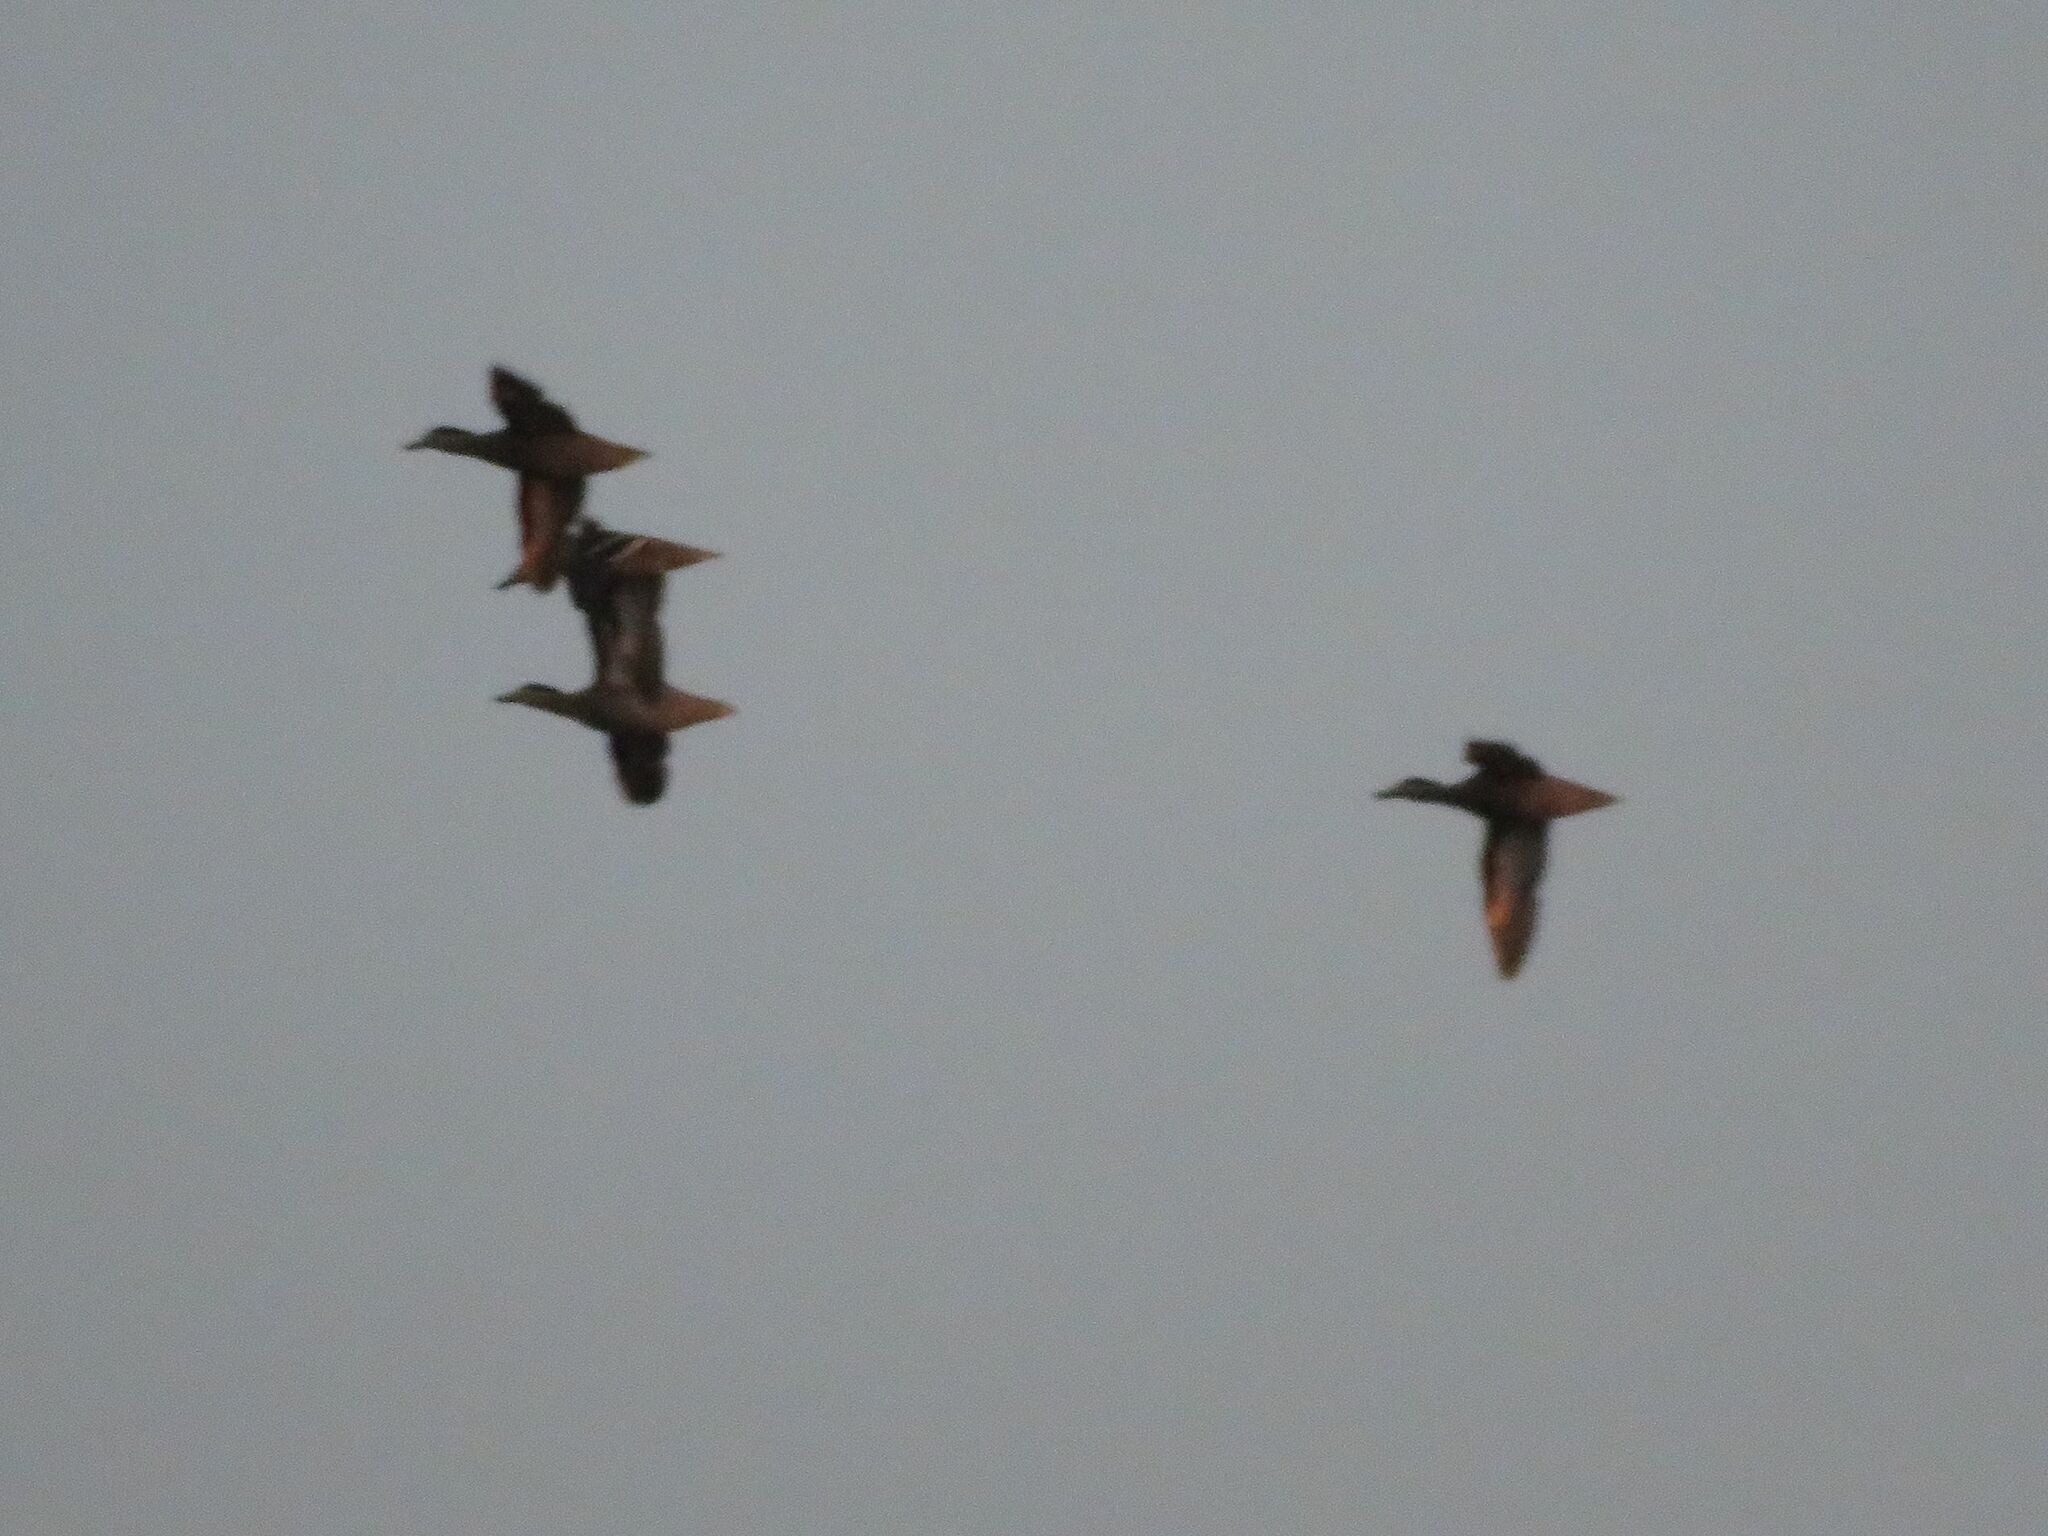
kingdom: Animalia
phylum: Chordata
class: Aves
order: Anseriformes
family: Anatidae
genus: Spatula
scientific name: Spatula versicolor
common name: Silver teal
